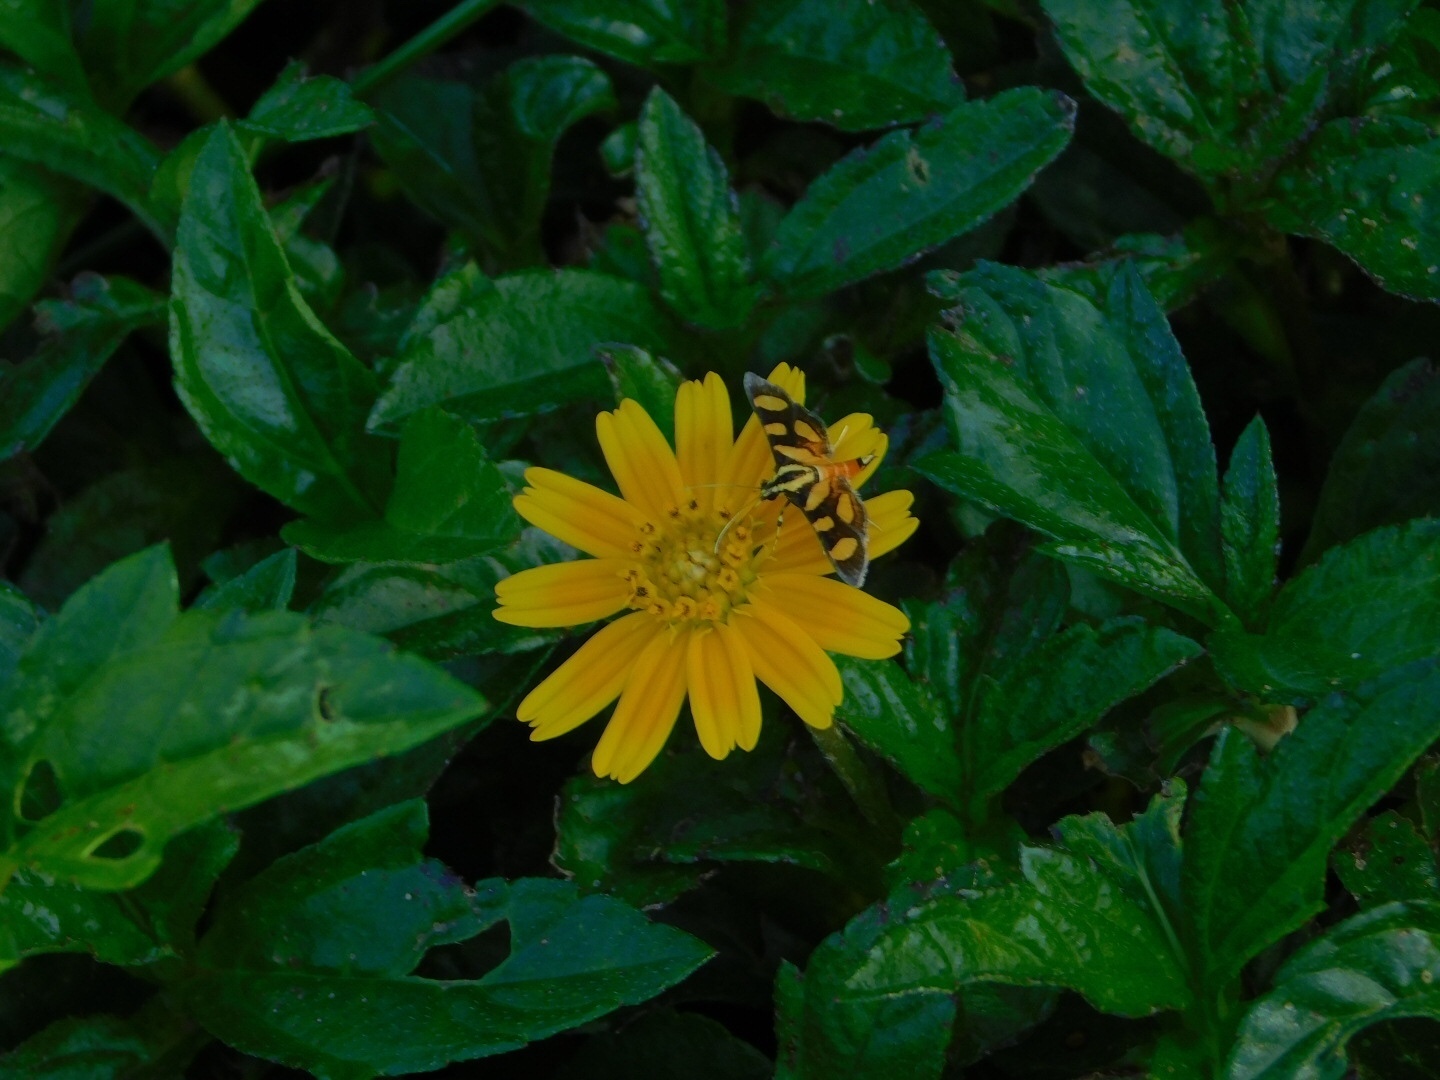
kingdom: Animalia
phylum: Arthropoda
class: Insecta
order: Lepidoptera
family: Crambidae
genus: Syngamia
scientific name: Syngamia florella
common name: Orange-spotted flower moth
